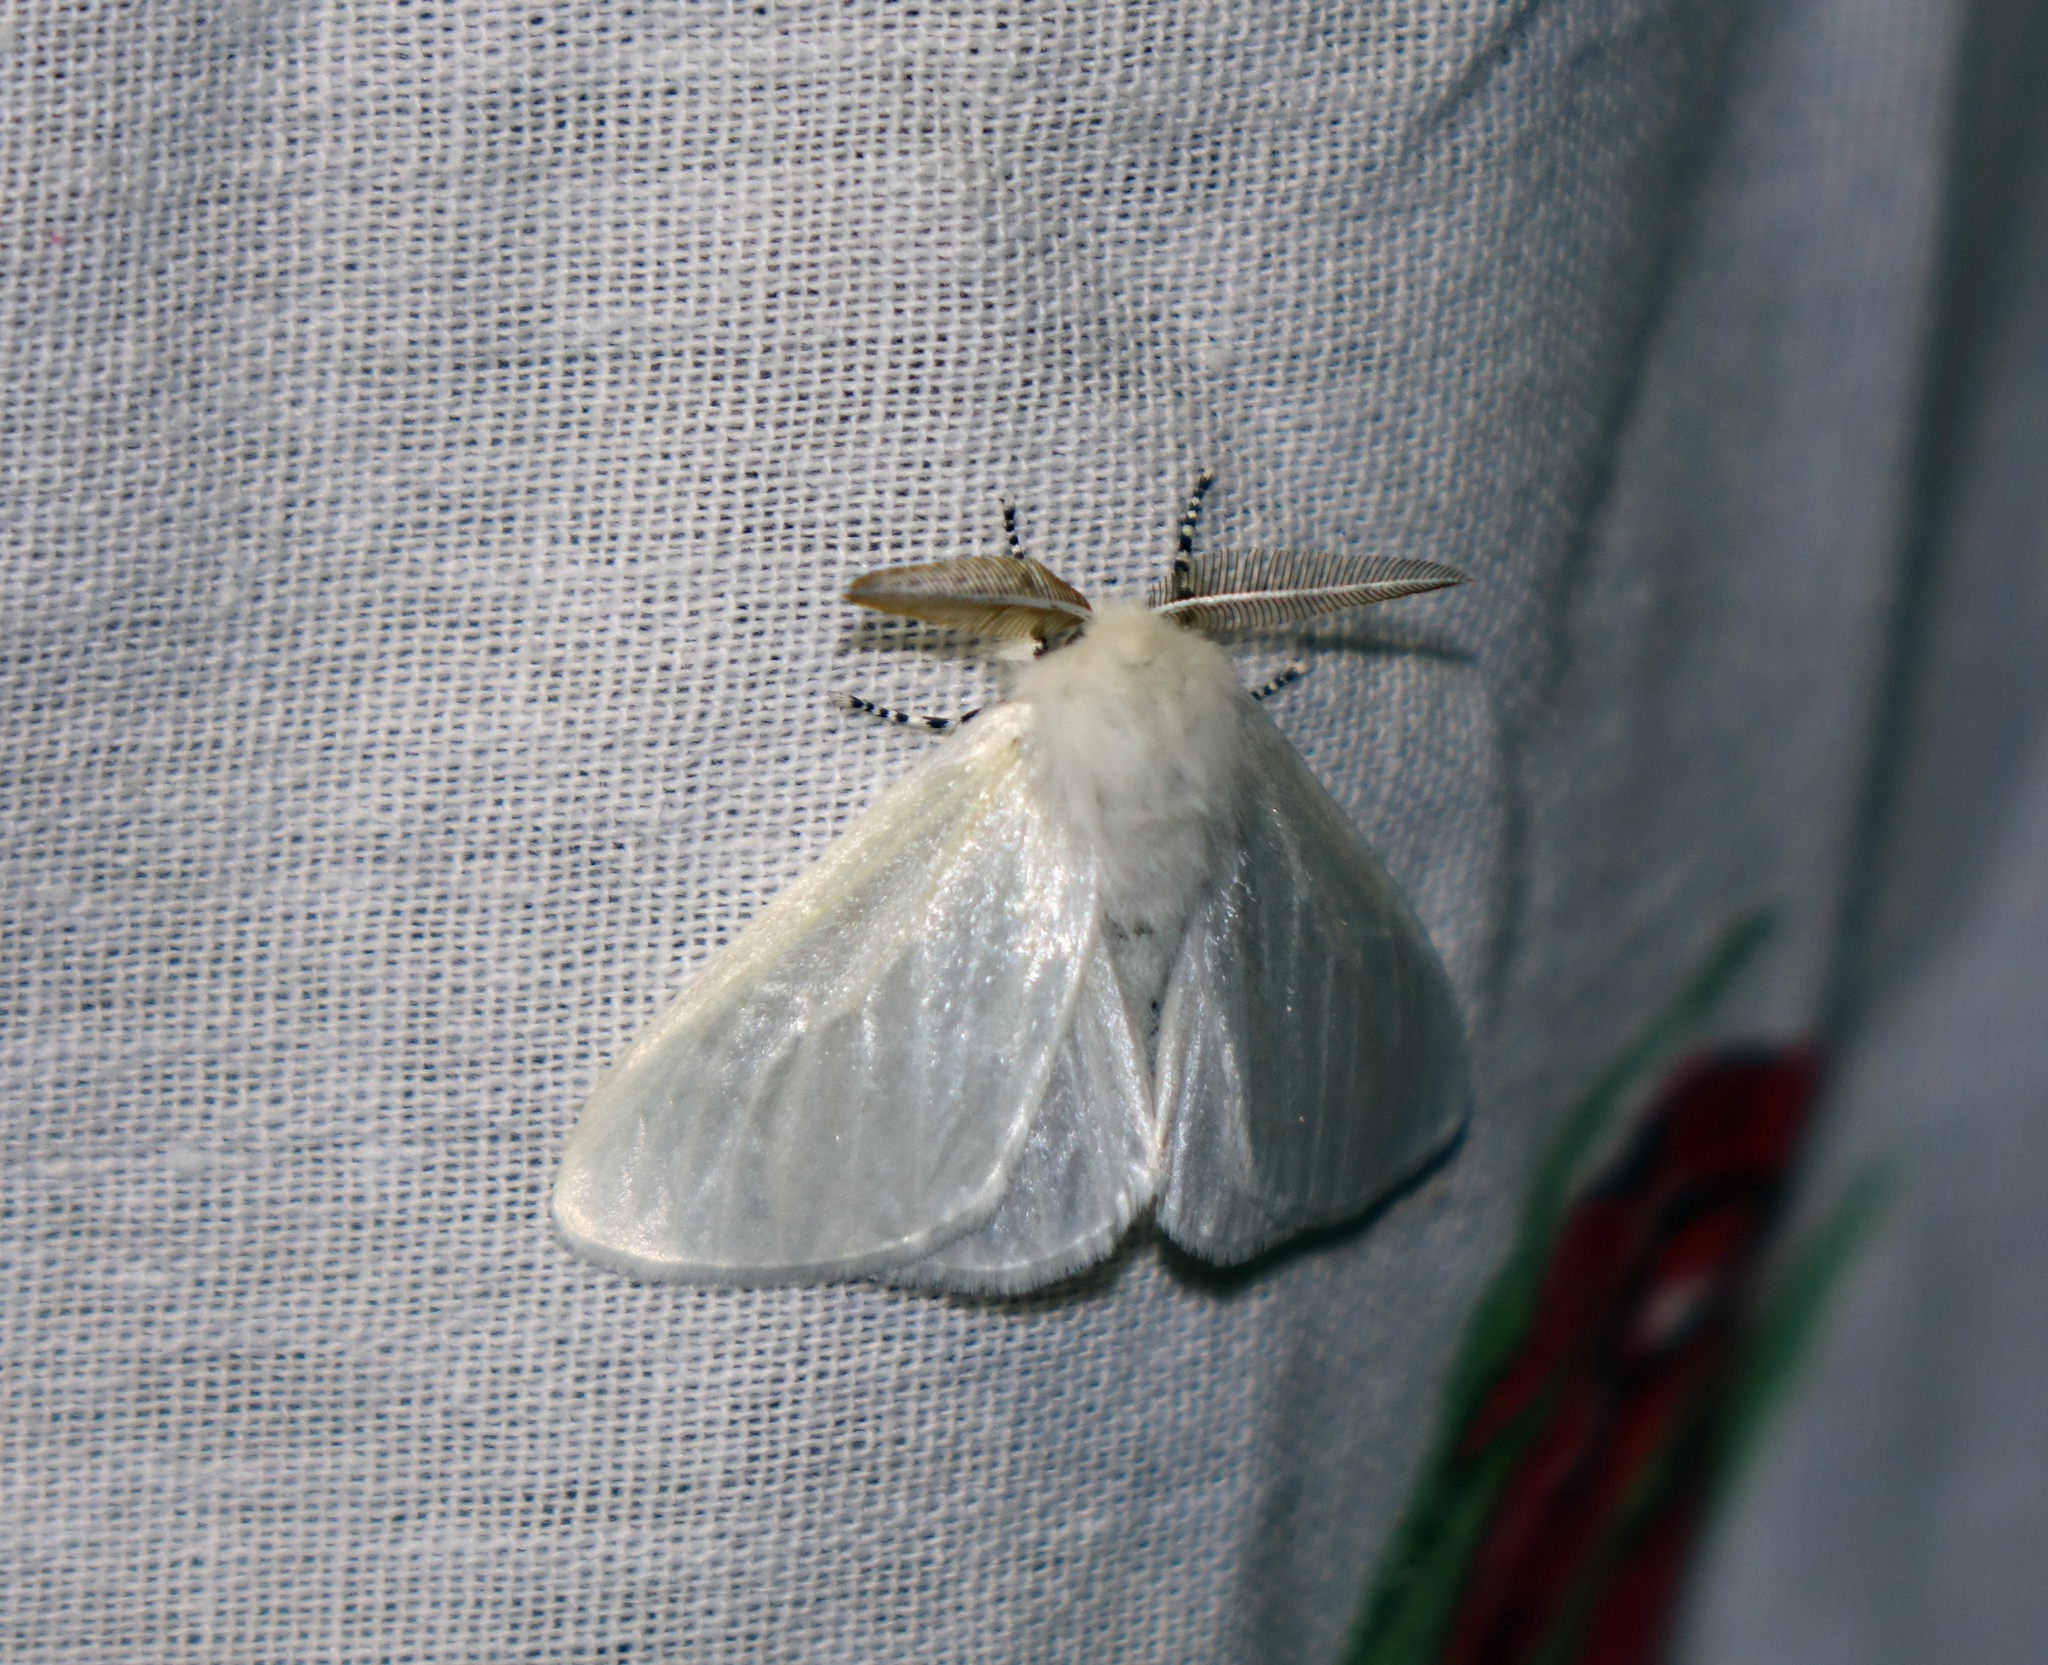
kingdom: Animalia
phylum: Arthropoda
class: Insecta
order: Lepidoptera
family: Erebidae
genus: Leucoma
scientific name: Leucoma salicis
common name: White satin moth
